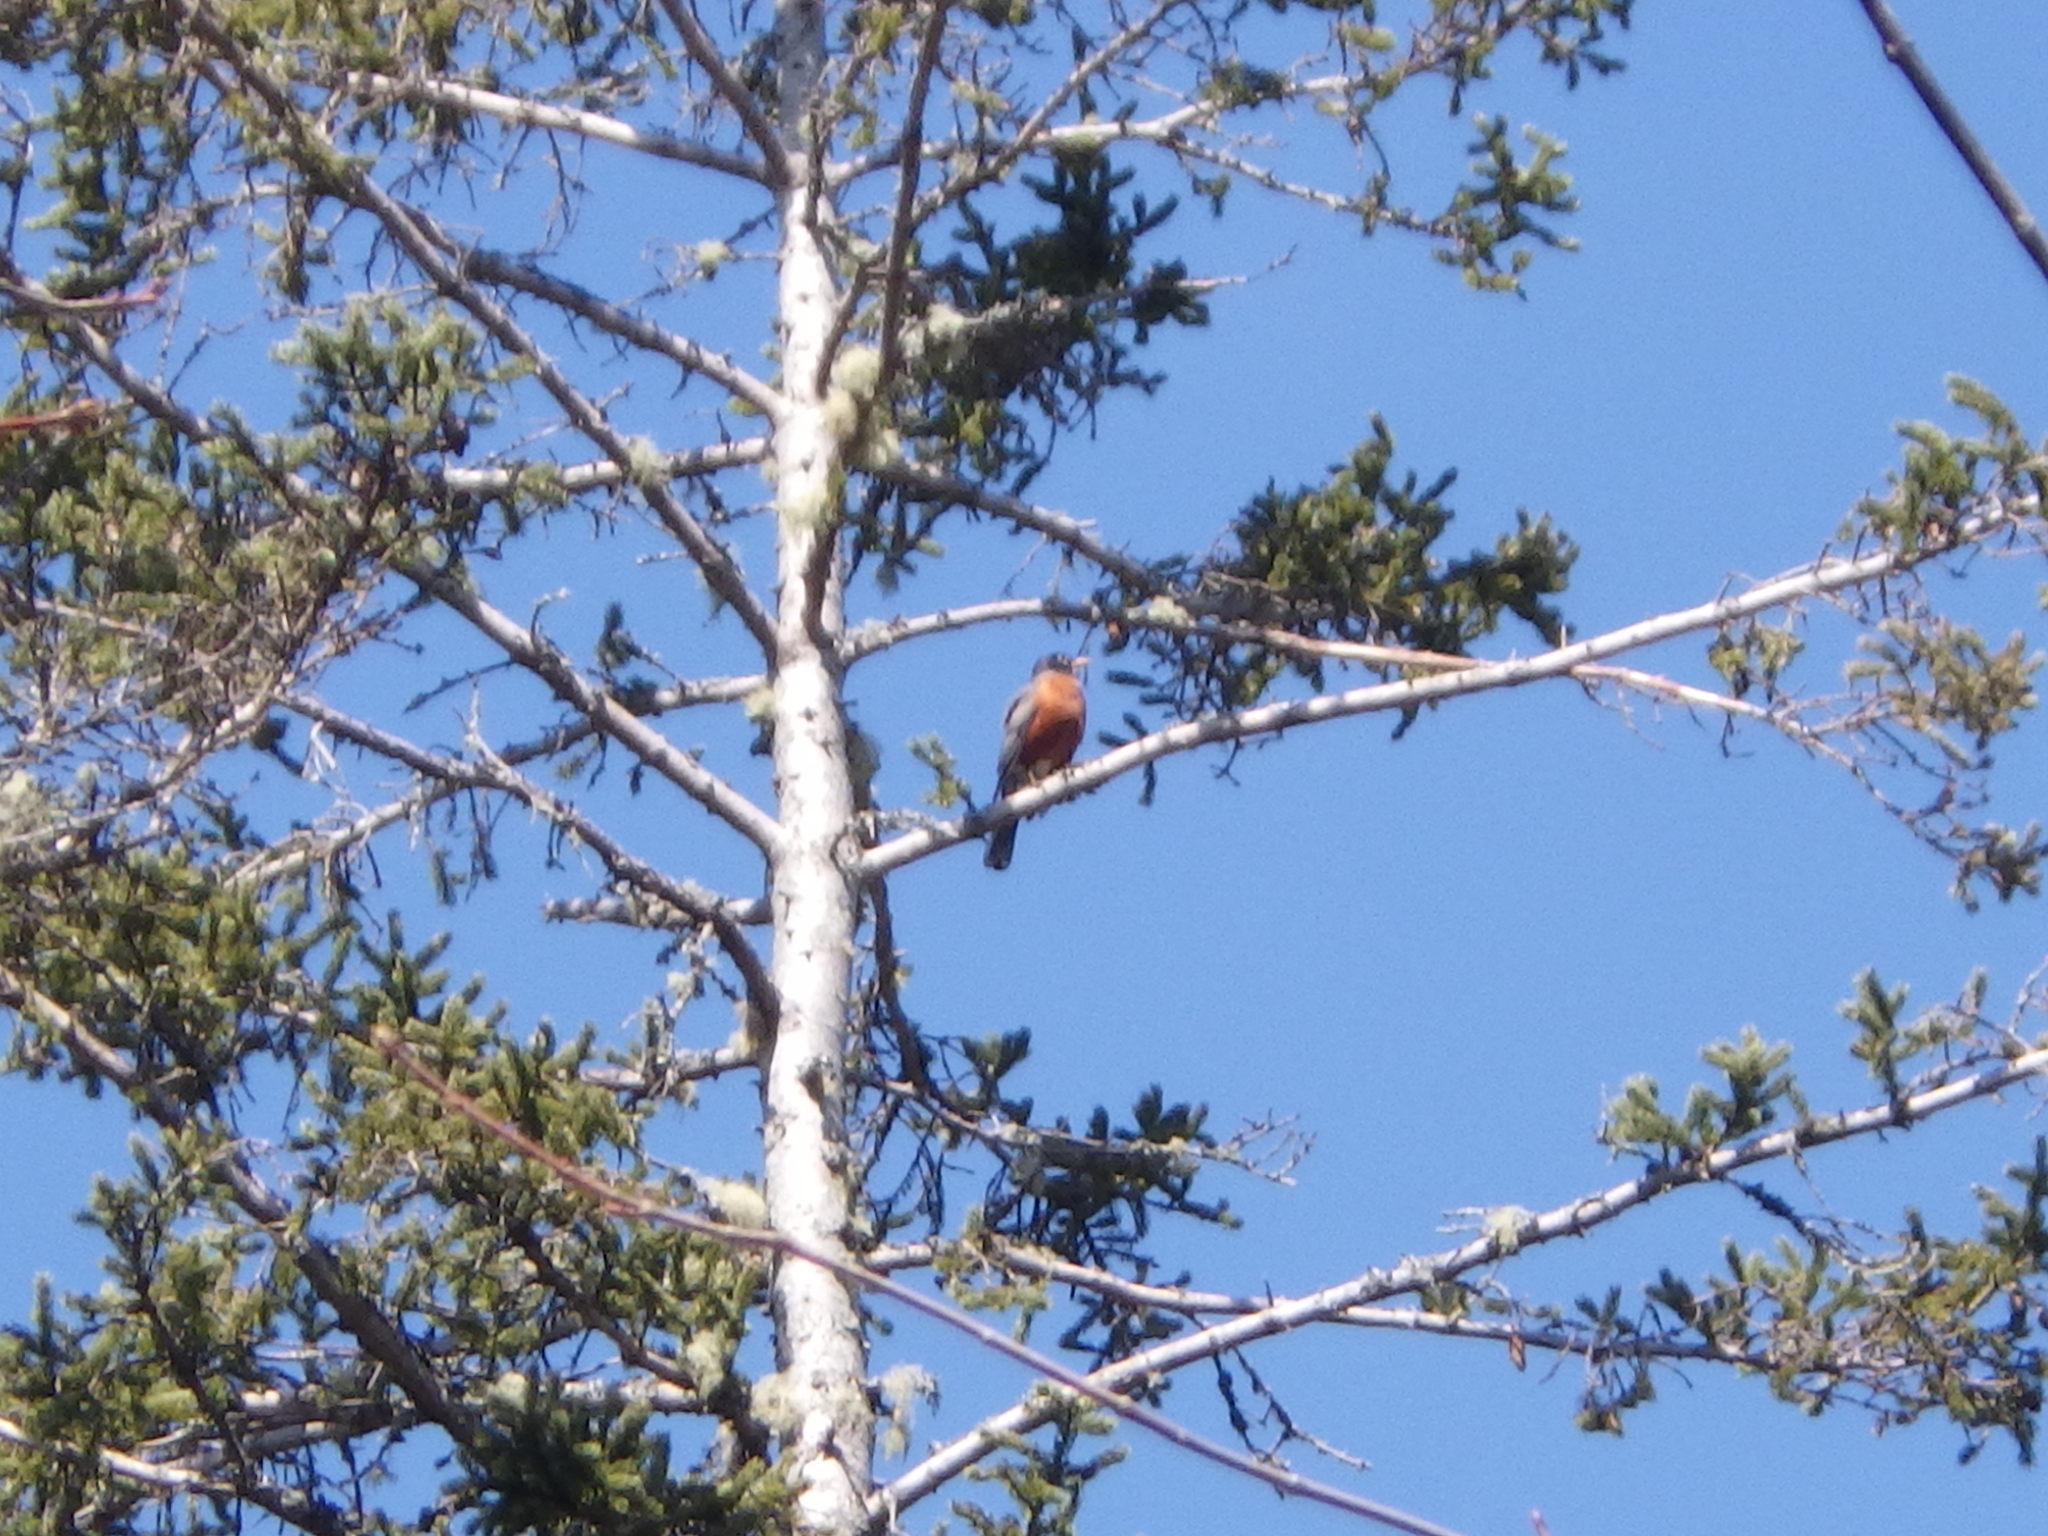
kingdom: Animalia
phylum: Chordata
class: Aves
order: Passeriformes
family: Turdidae
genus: Turdus
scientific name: Turdus migratorius
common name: American robin
